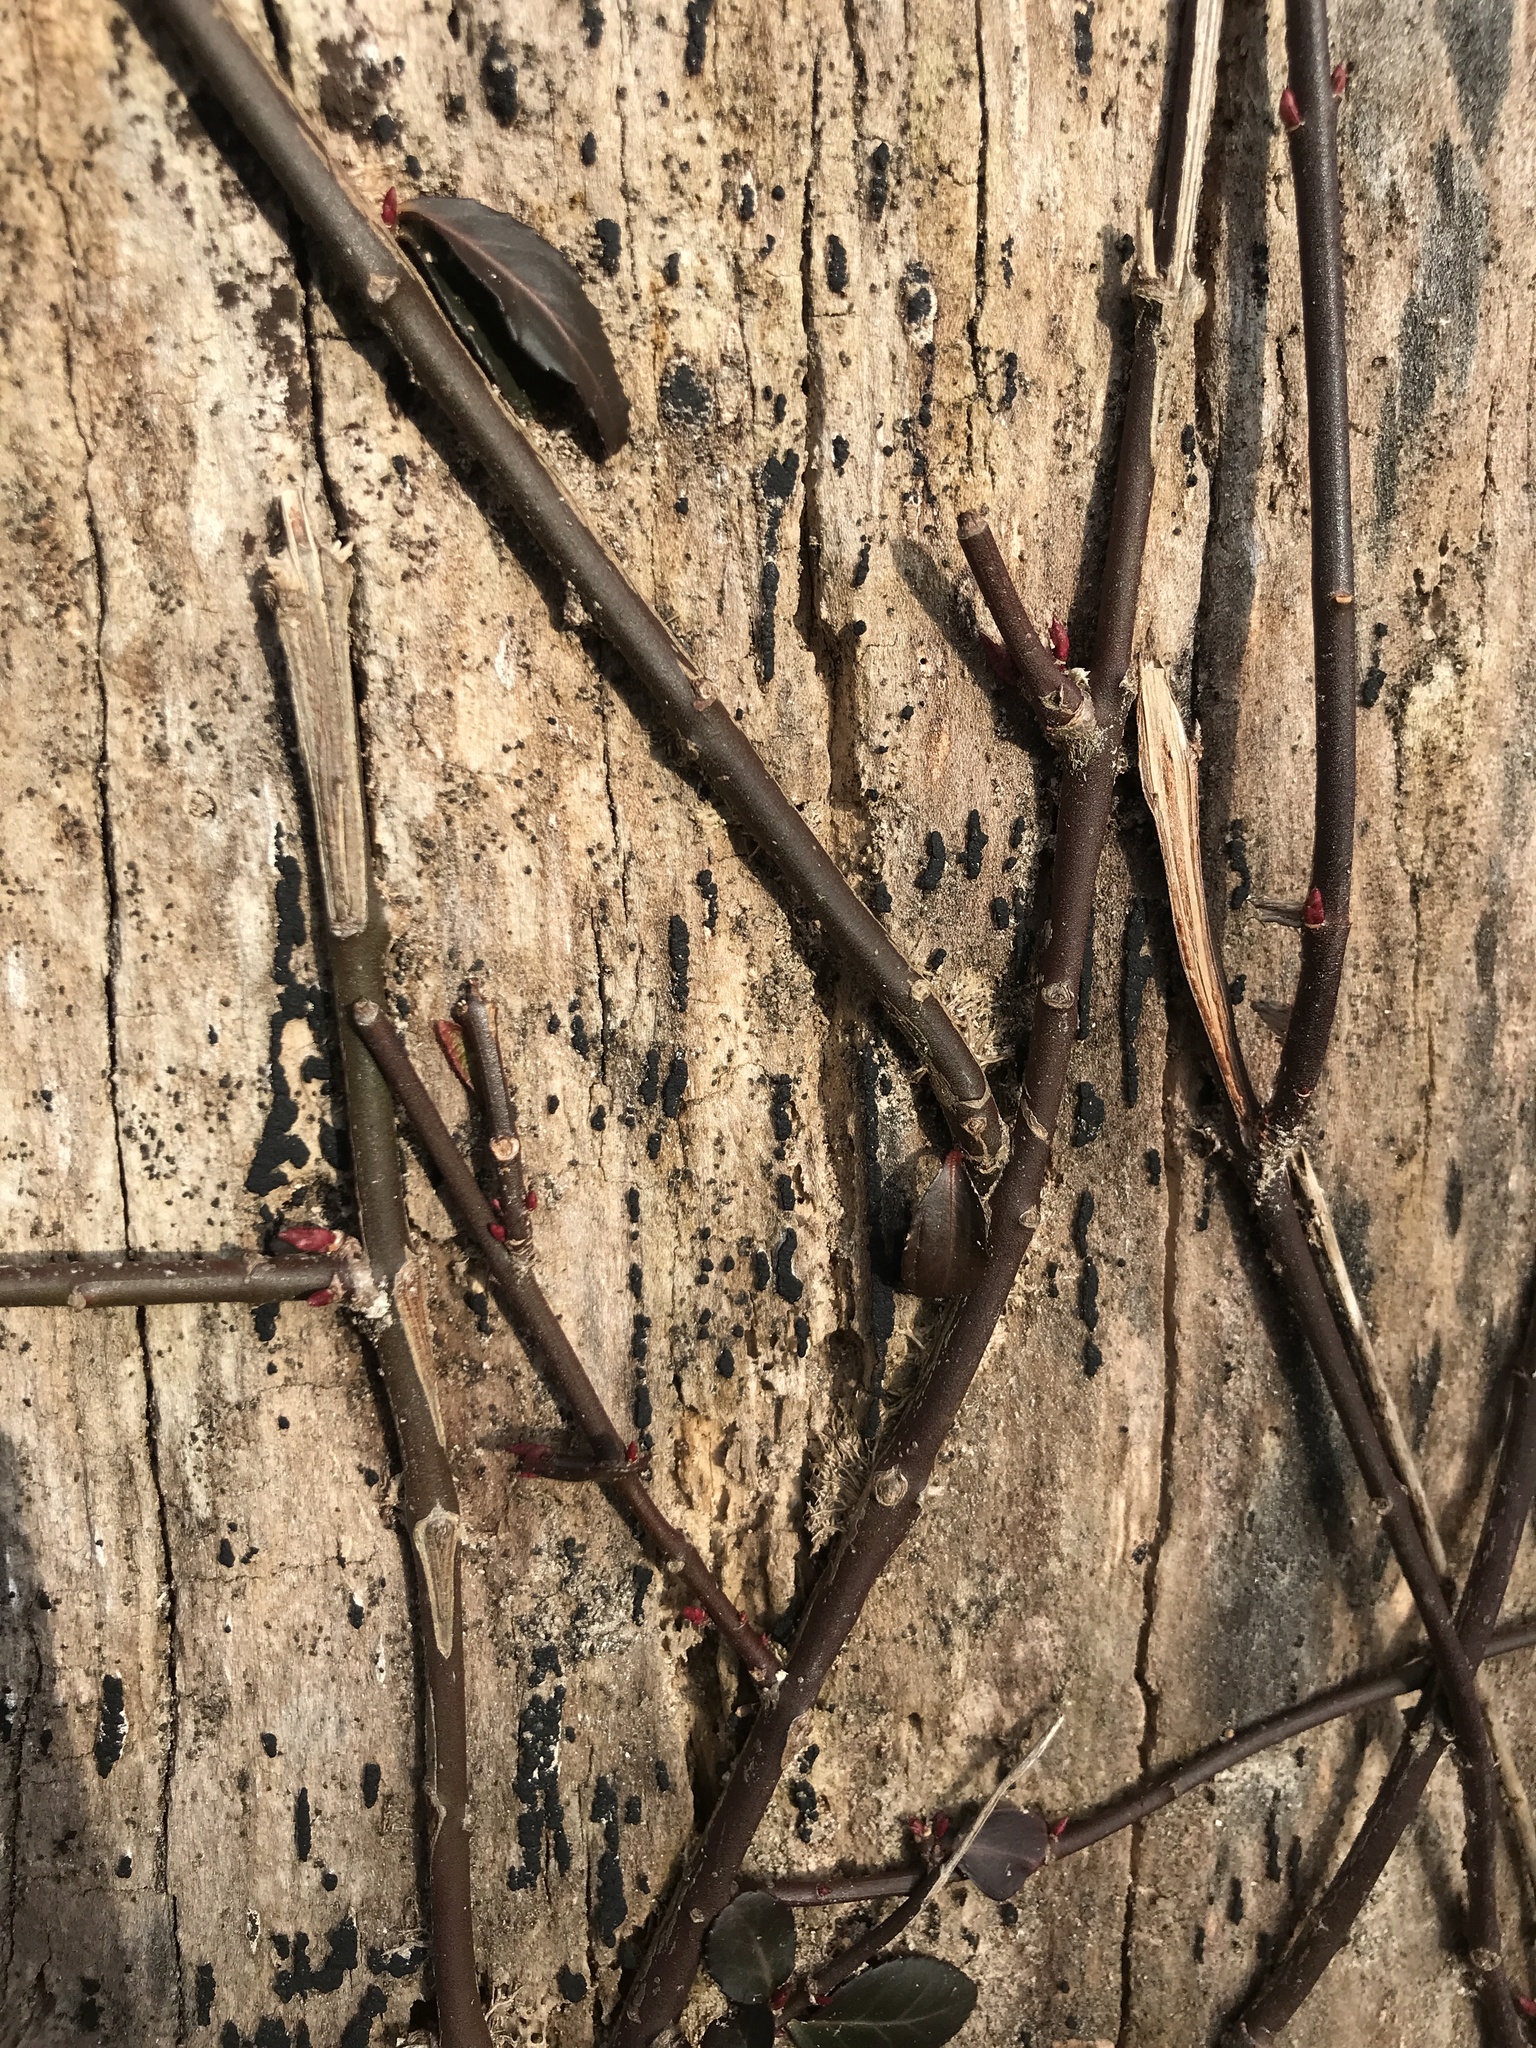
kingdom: Plantae
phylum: Tracheophyta
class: Magnoliopsida
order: Celastrales
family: Celastraceae
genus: Euonymus
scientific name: Euonymus fortunei
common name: Climbing euonymus
